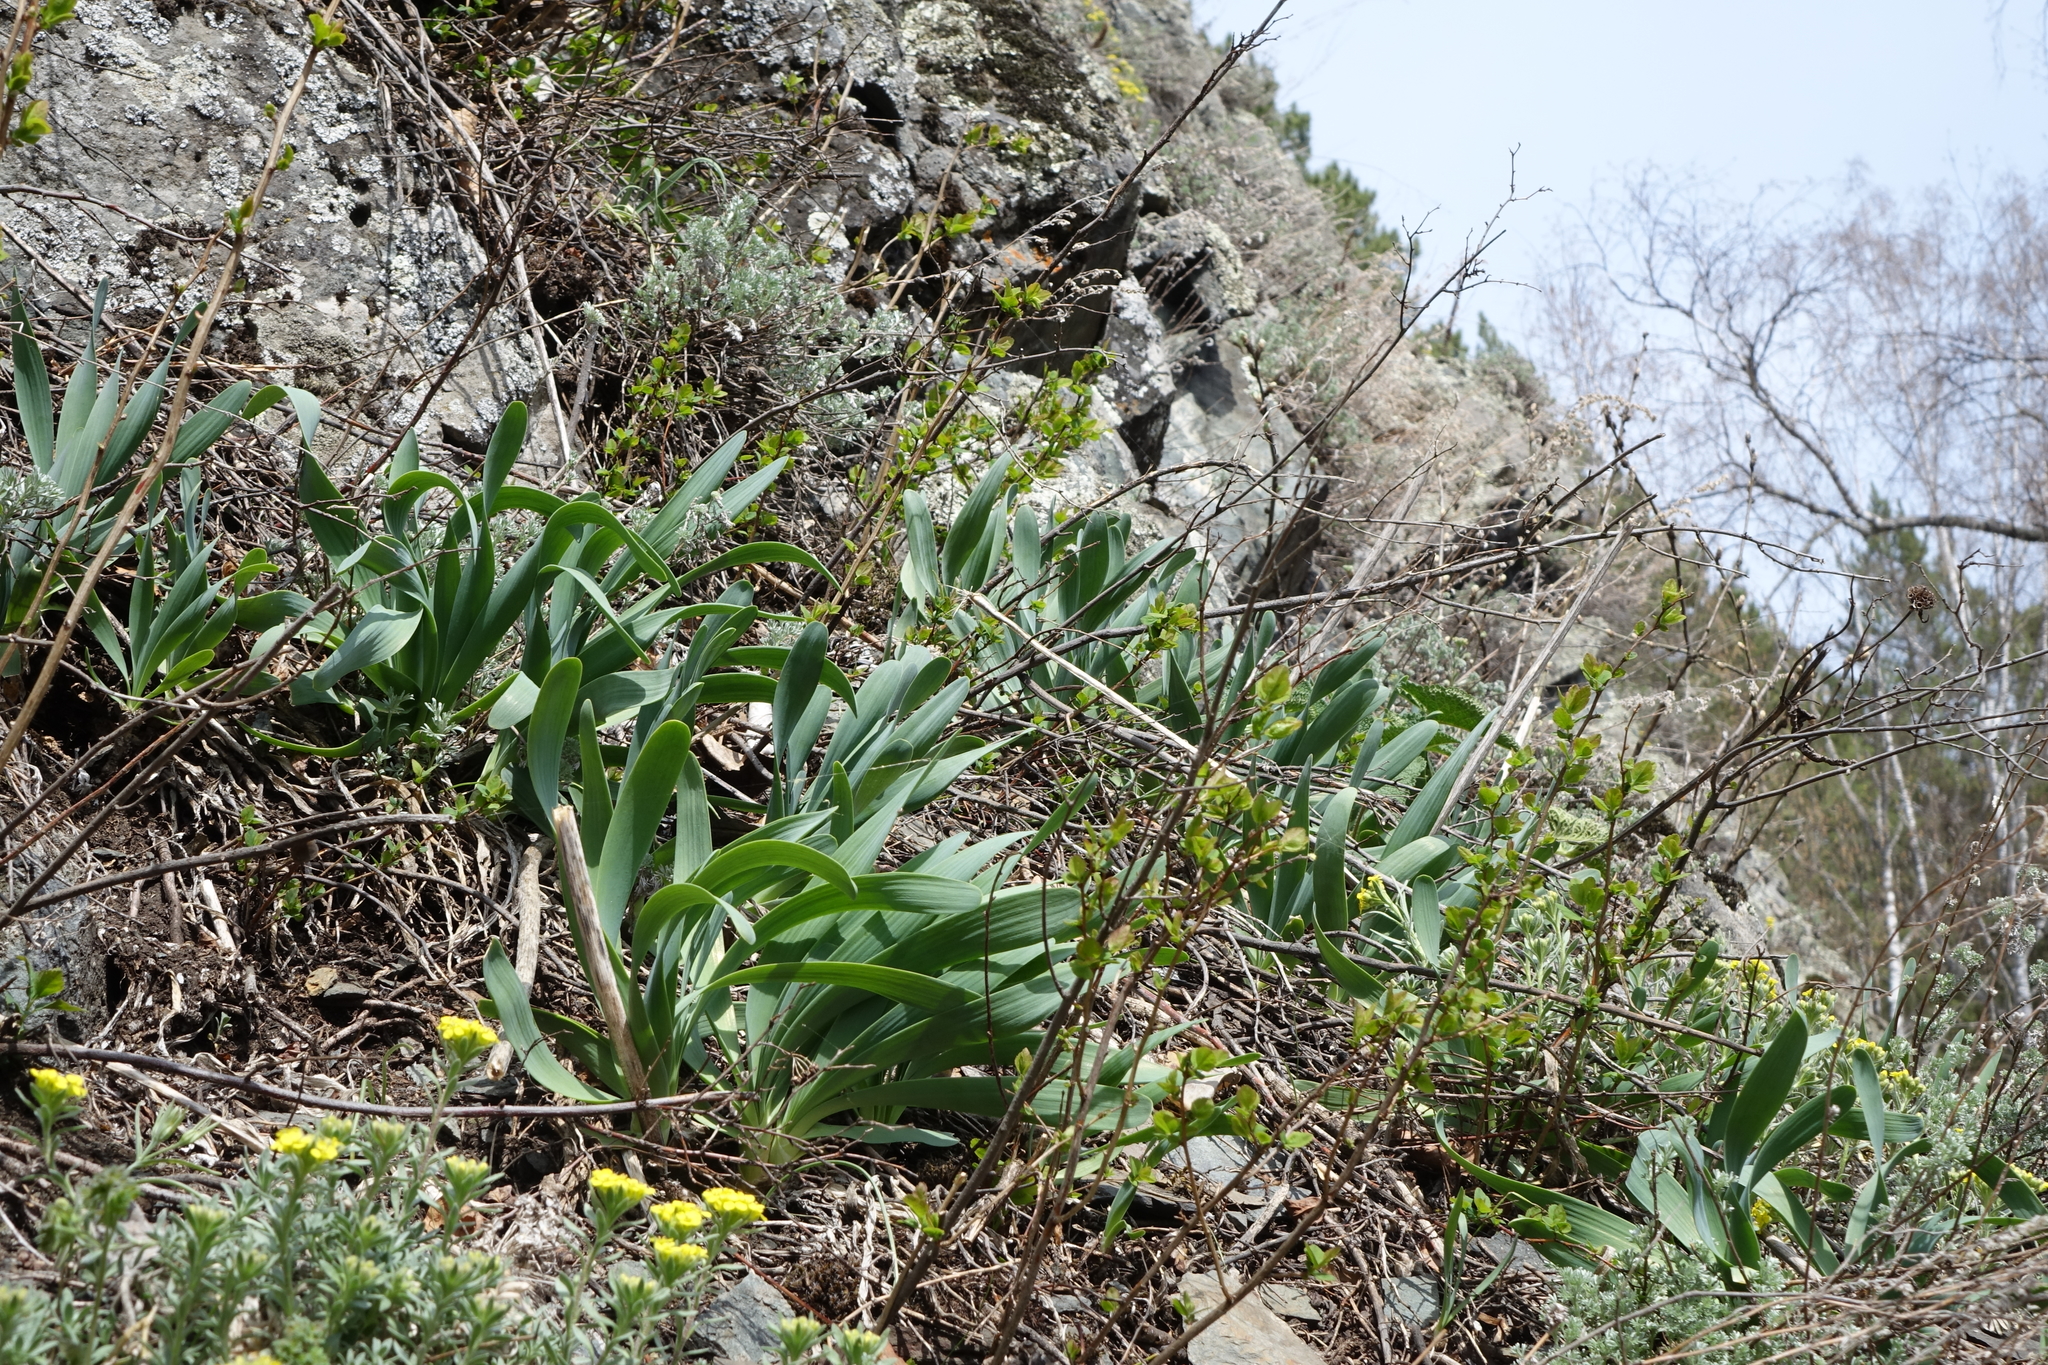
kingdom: Plantae
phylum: Tracheophyta
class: Liliopsida
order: Asparagales
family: Amaryllidaceae
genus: Allium
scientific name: Allium nutans
